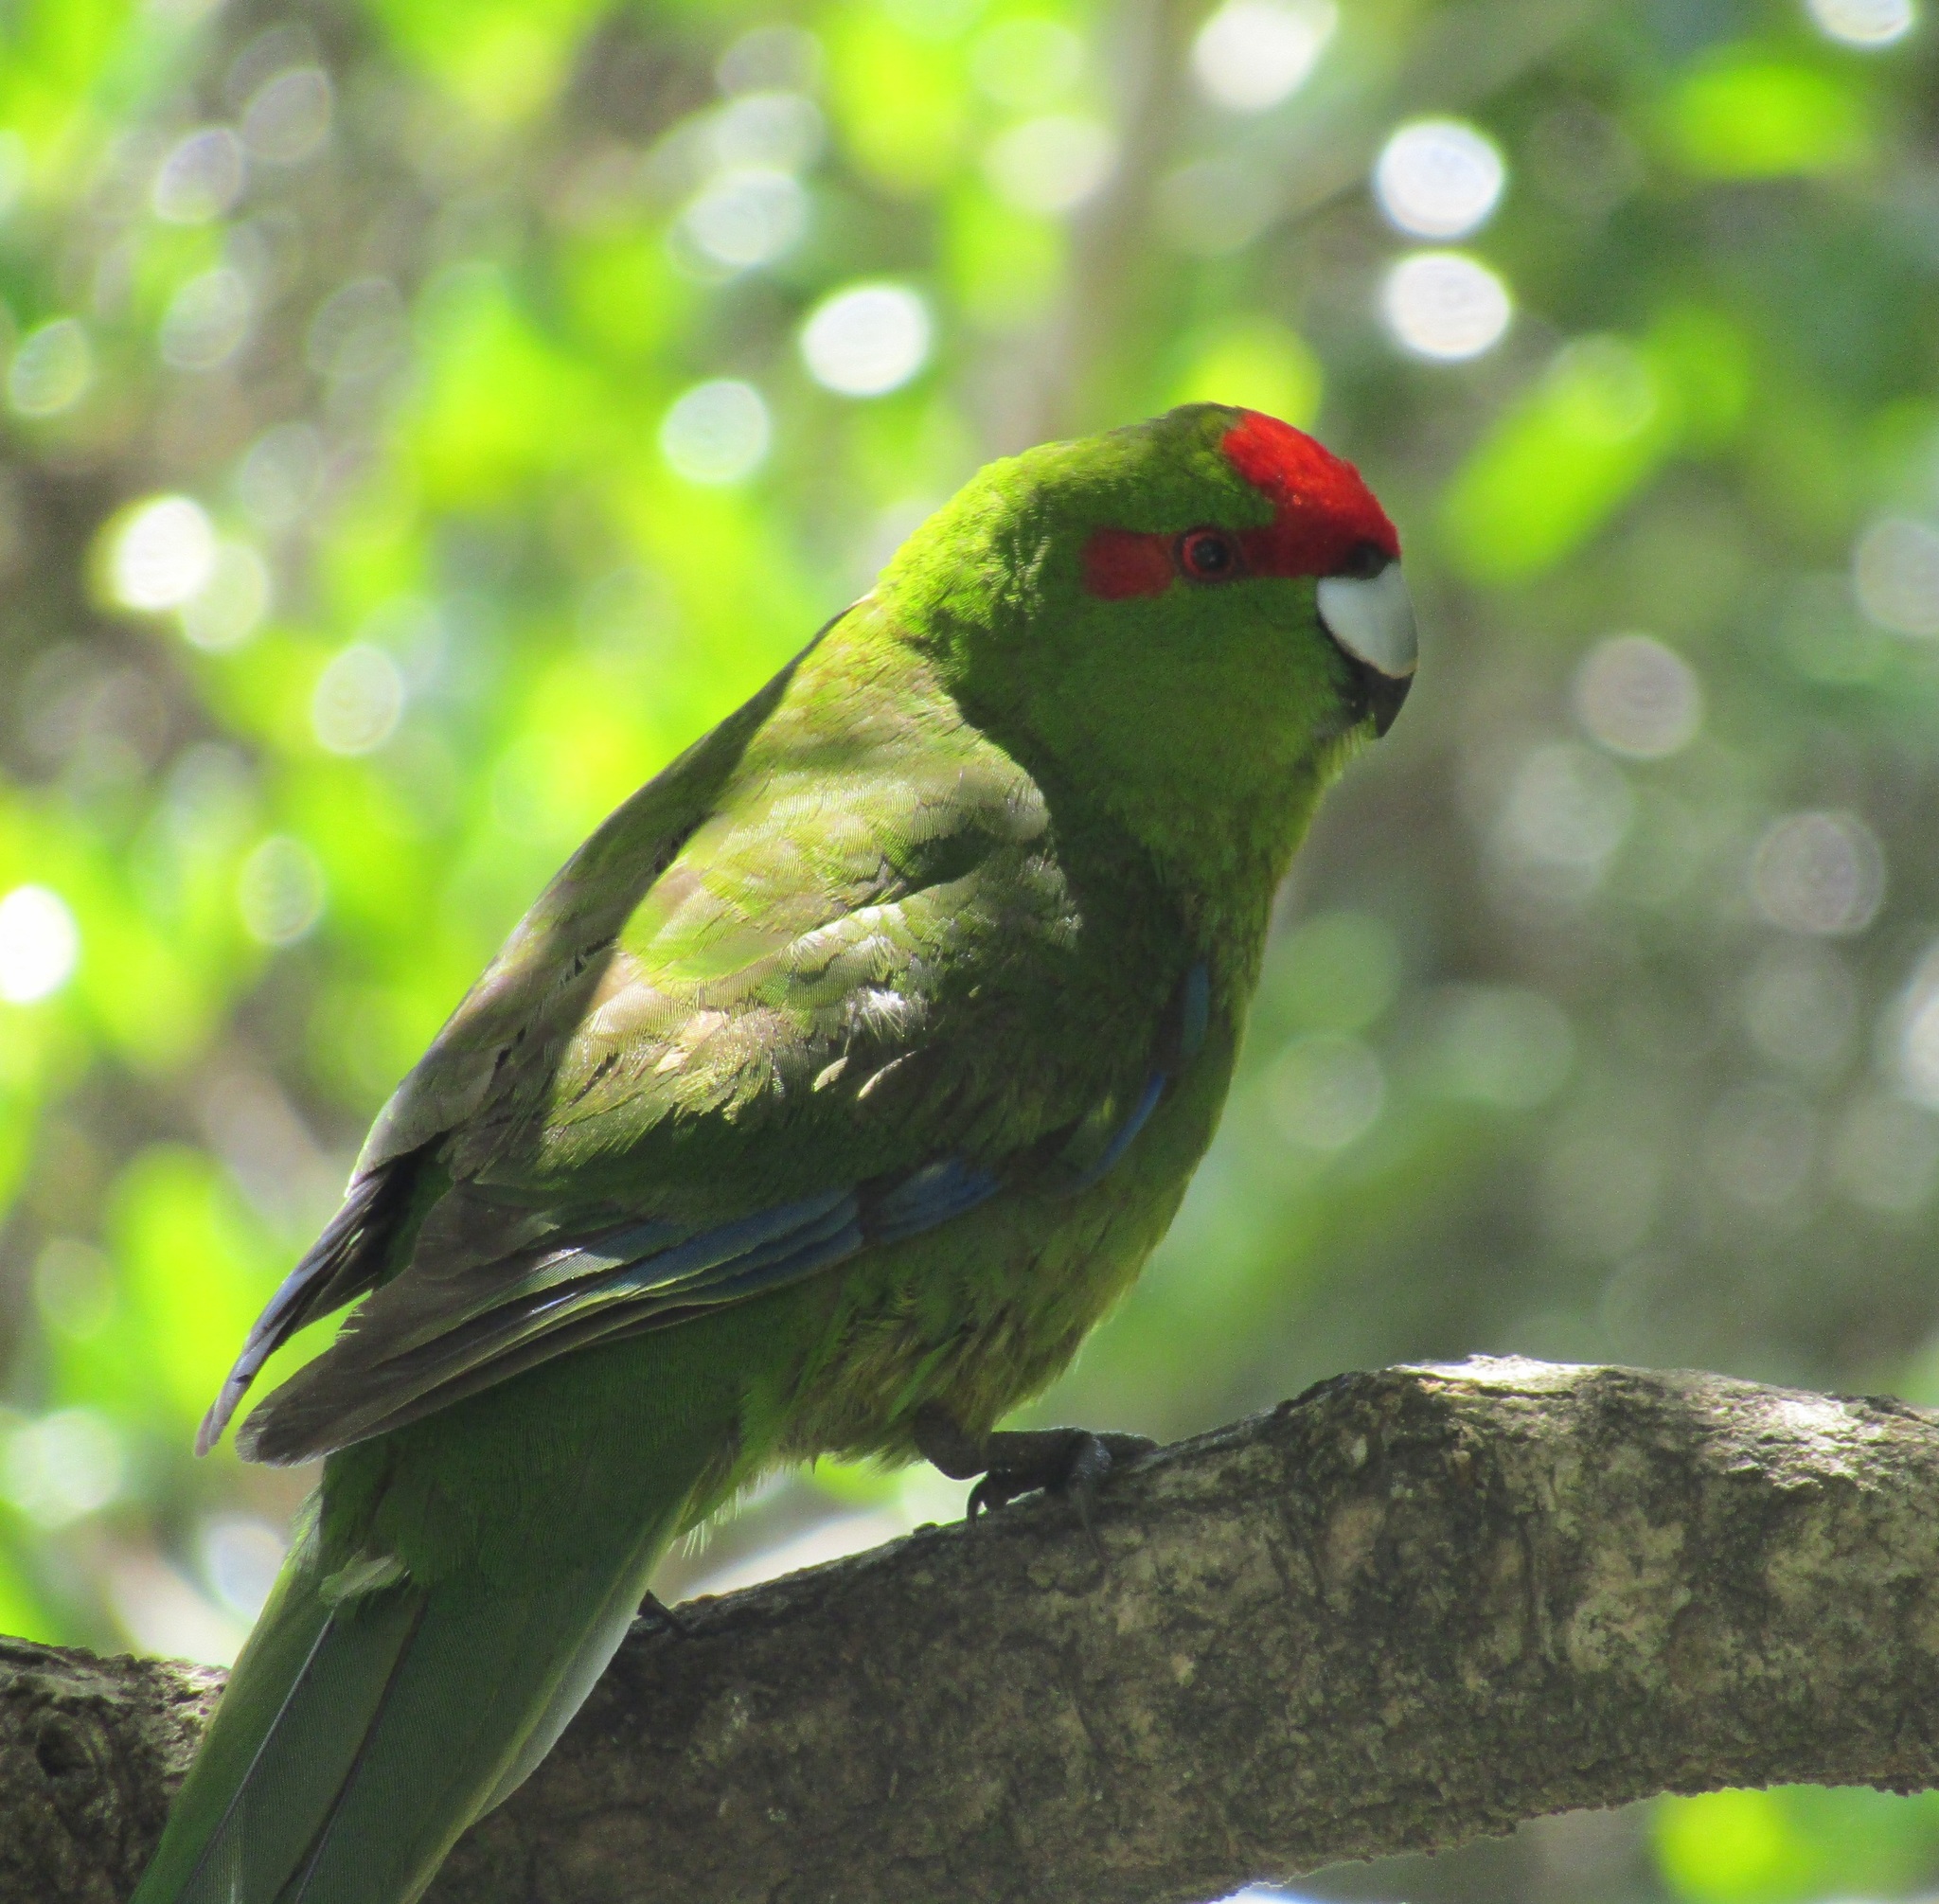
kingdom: Animalia
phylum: Chordata
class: Aves
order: Psittaciformes
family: Psittacidae
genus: Cyanoramphus
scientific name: Cyanoramphus novaezelandiae
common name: Red-fronted parakeet
